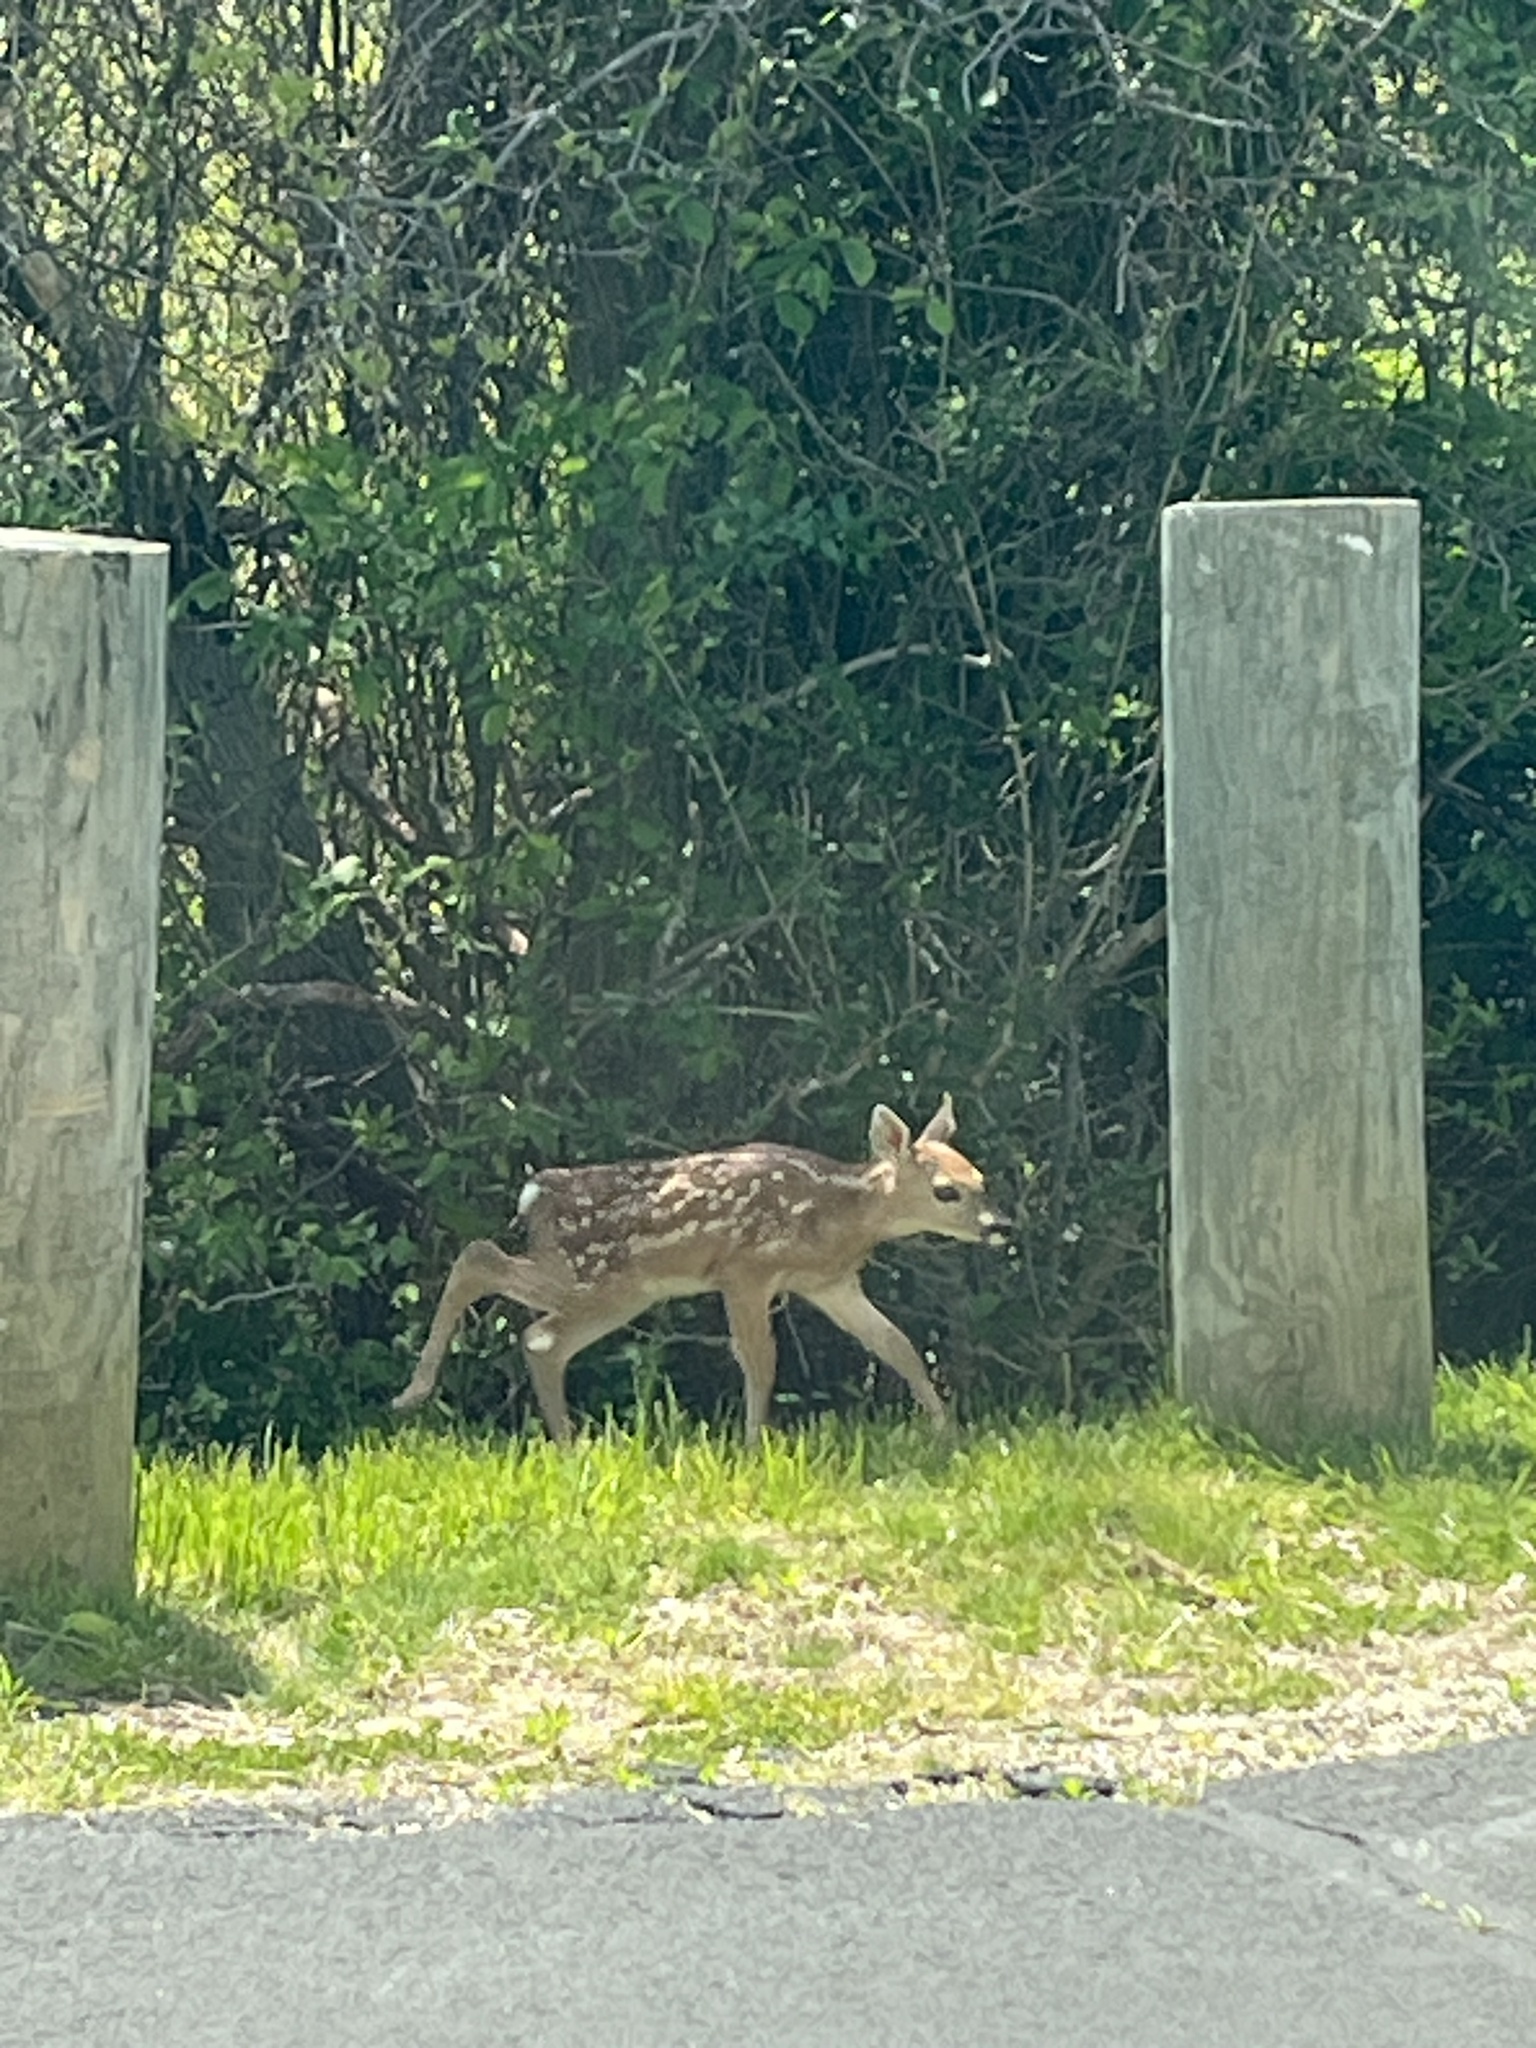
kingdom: Animalia
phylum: Chordata
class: Mammalia
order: Artiodactyla
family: Cervidae
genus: Odocoileus
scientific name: Odocoileus virginianus
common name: White-tailed deer
